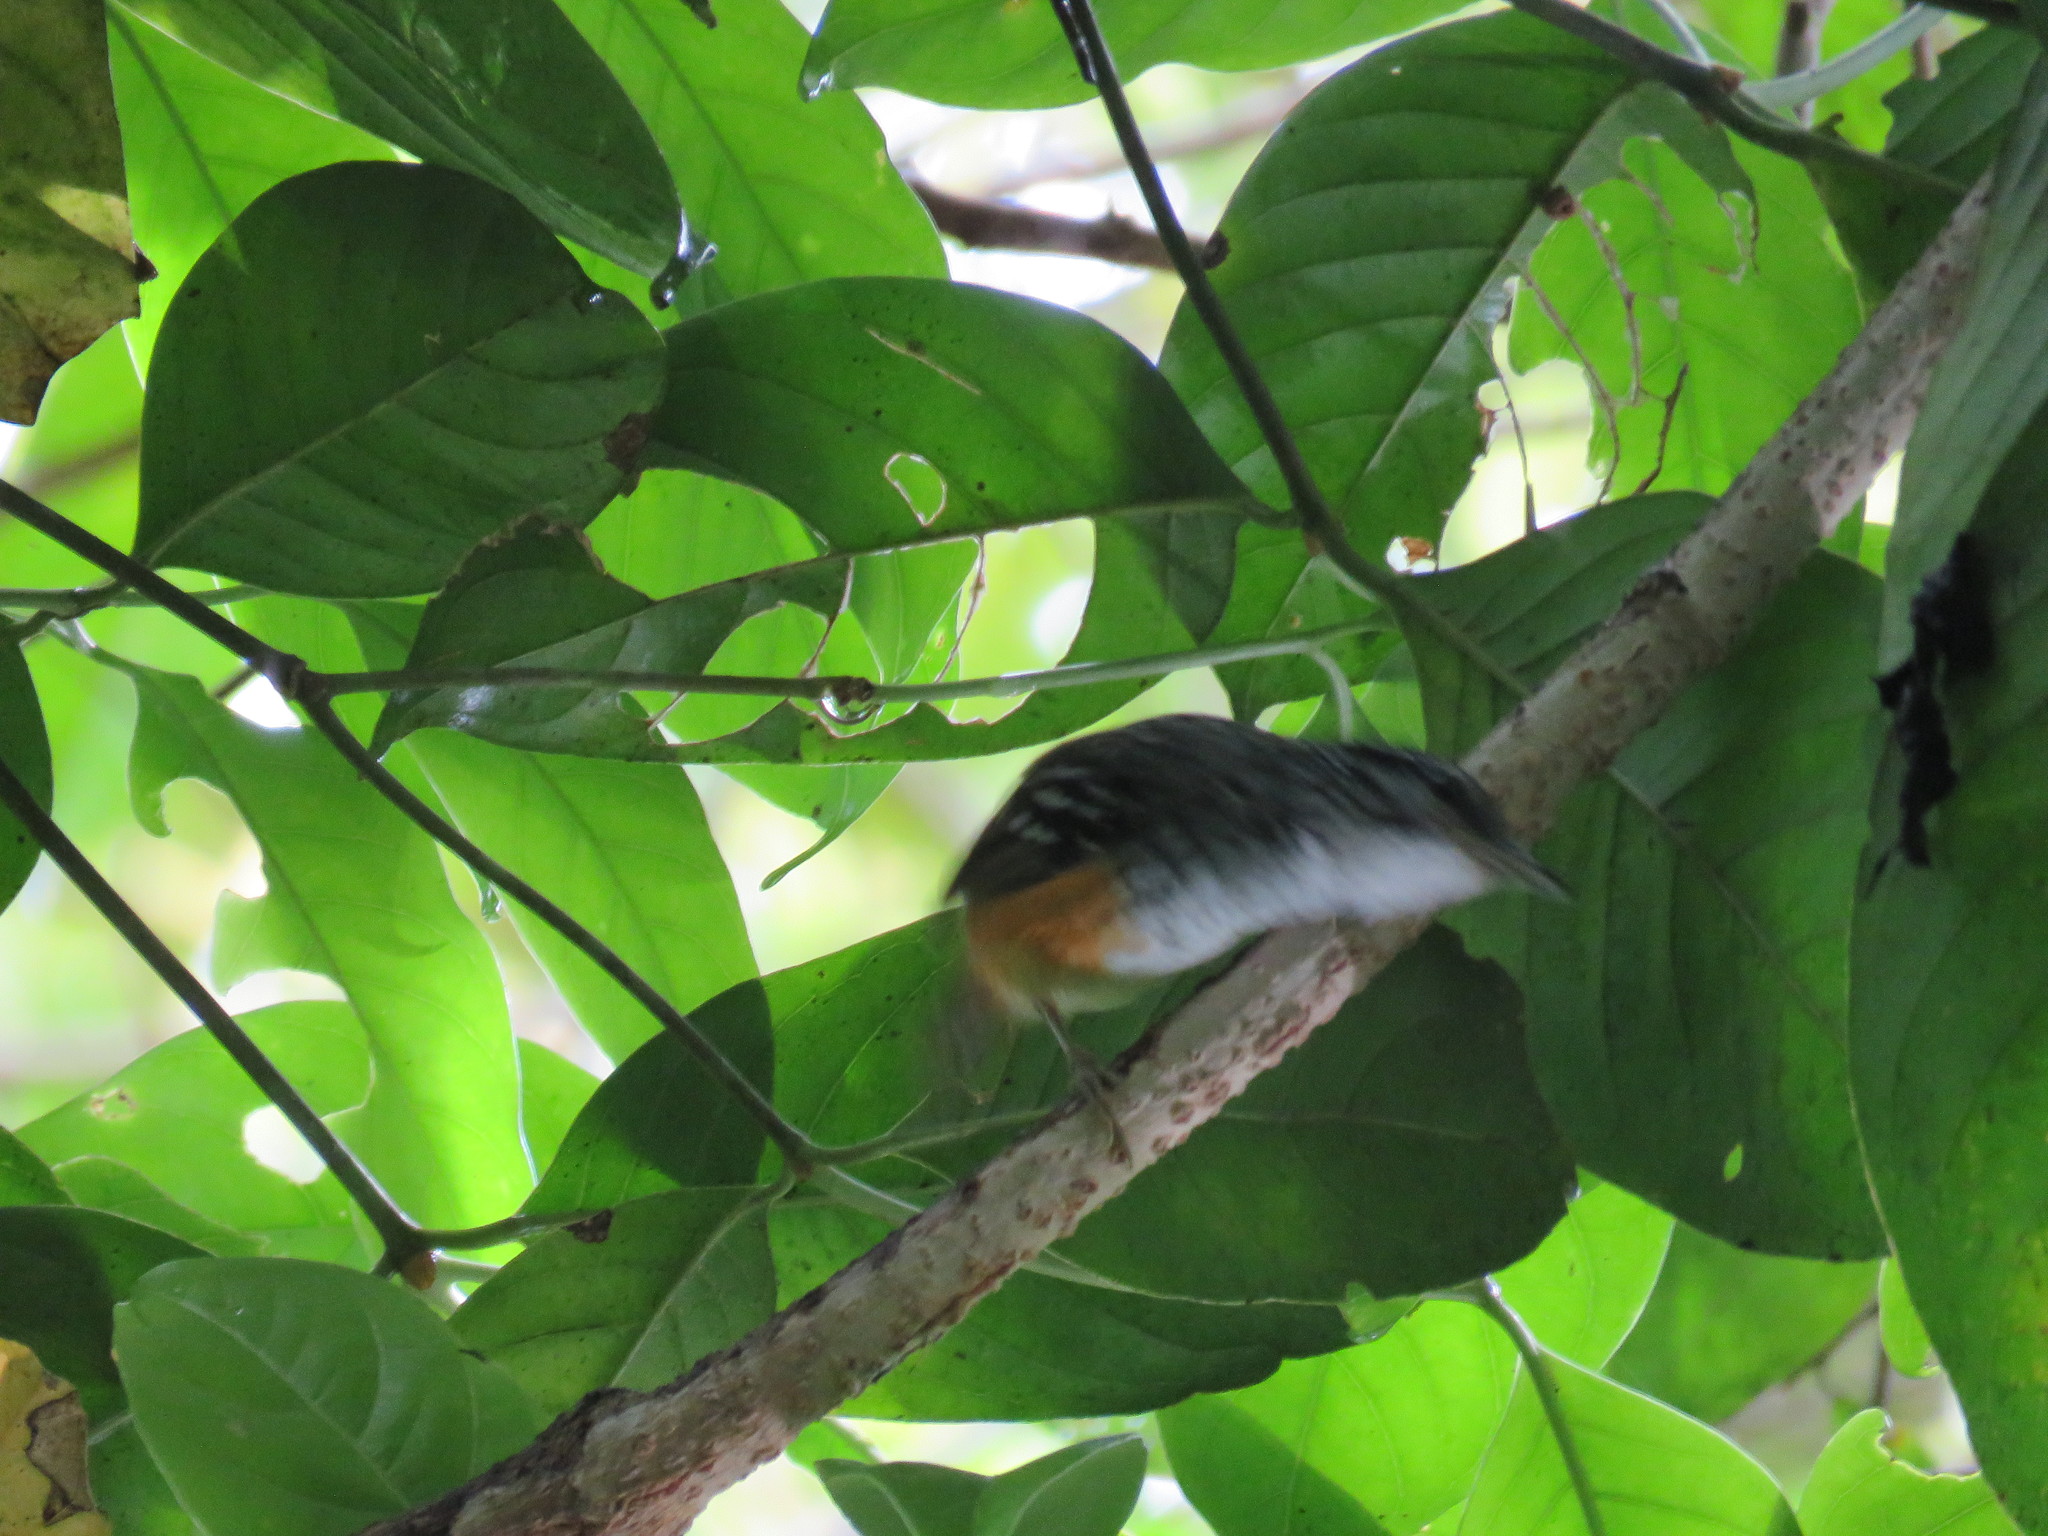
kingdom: Animalia
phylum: Chordata
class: Aves
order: Passeriformes
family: Thamnophilidae
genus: Hypocnemis
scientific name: Hypocnemis peruviana
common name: Peruvian warbling-antbird
